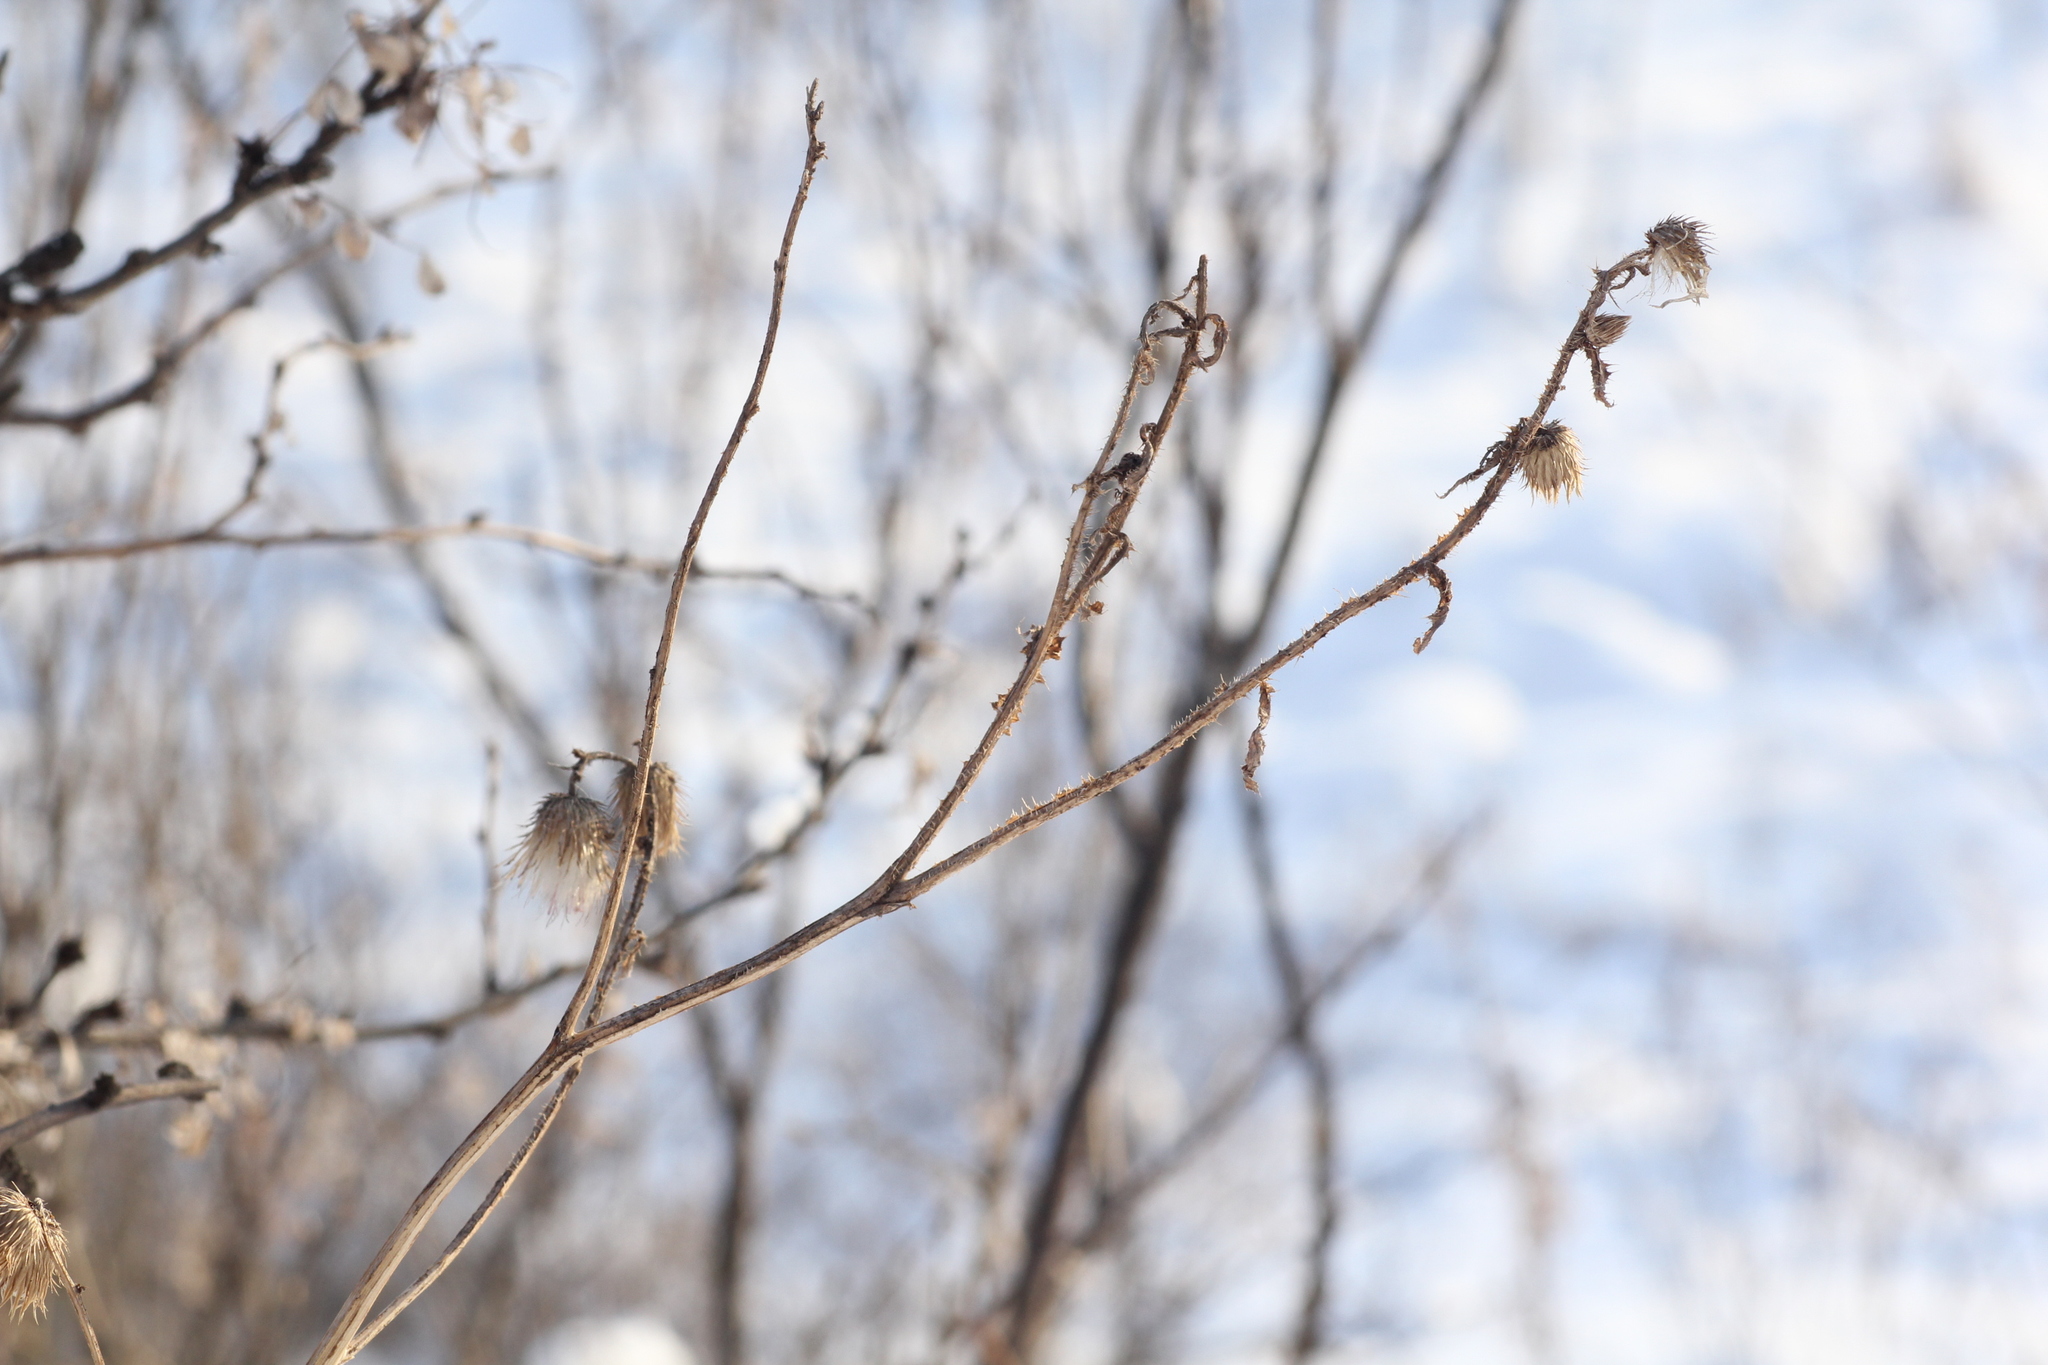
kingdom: Plantae
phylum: Tracheophyta
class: Magnoliopsida
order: Asterales
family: Asteraceae
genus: Carduus
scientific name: Carduus crispus
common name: Welted thistle
